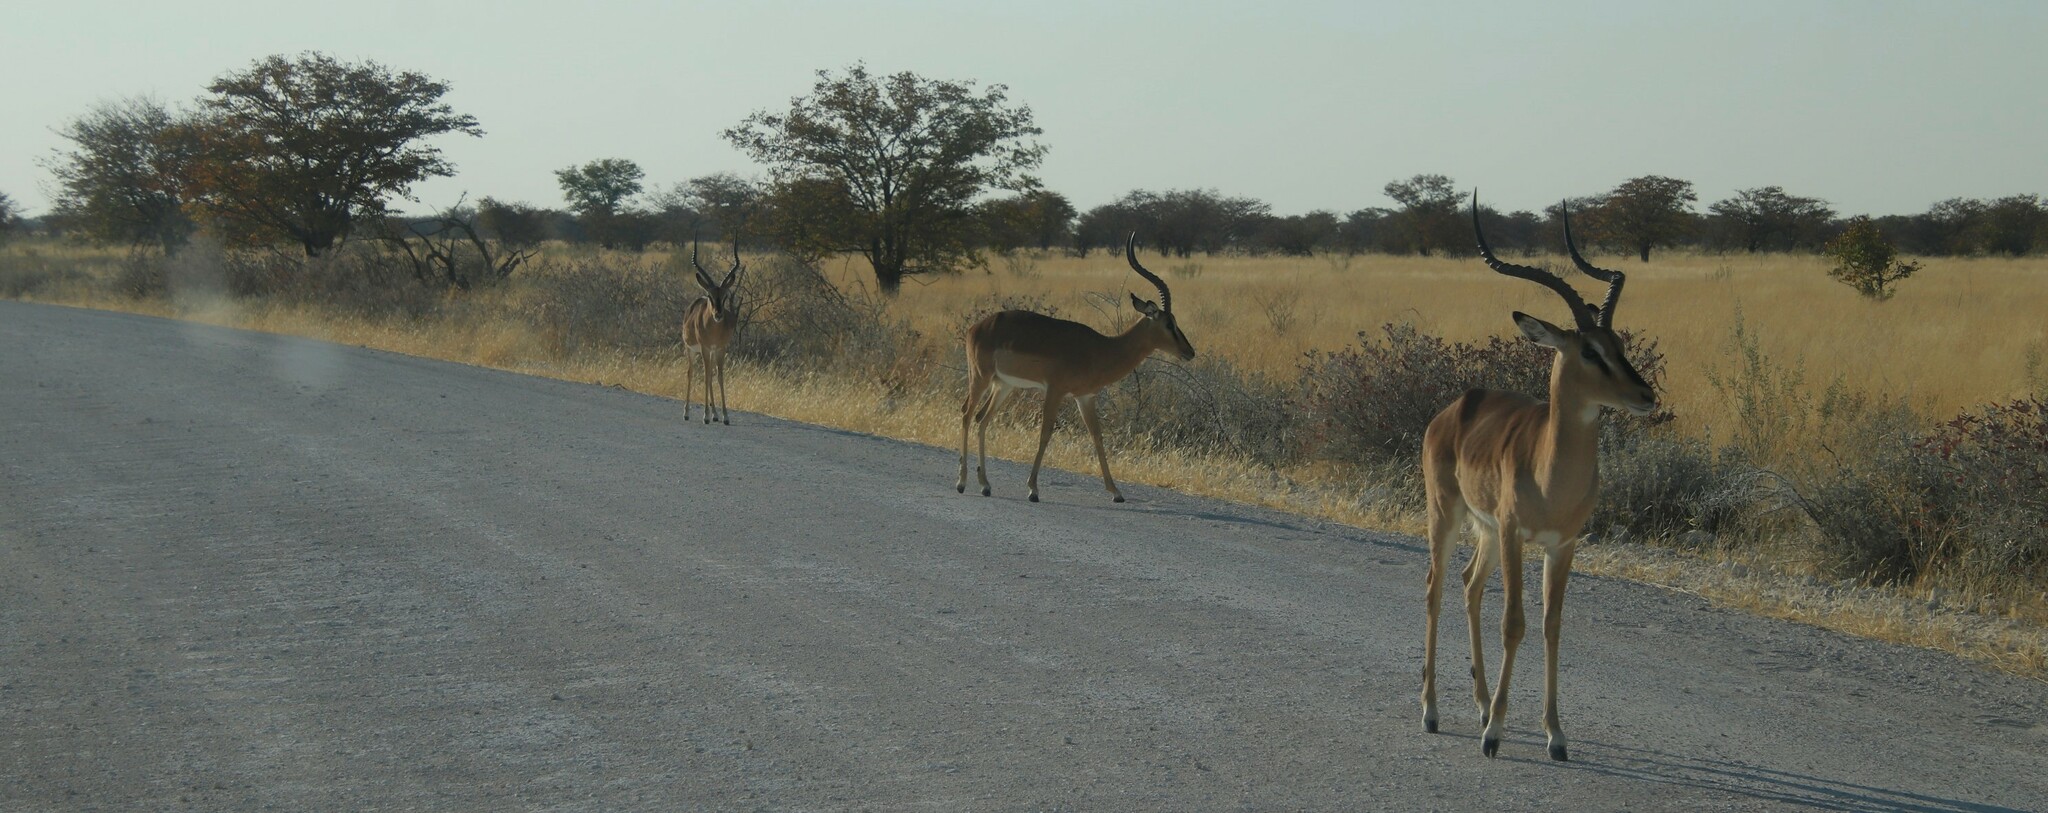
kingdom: Animalia
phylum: Chordata
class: Mammalia
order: Artiodactyla
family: Bovidae
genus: Aepyceros
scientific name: Aepyceros melampus
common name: Impala
